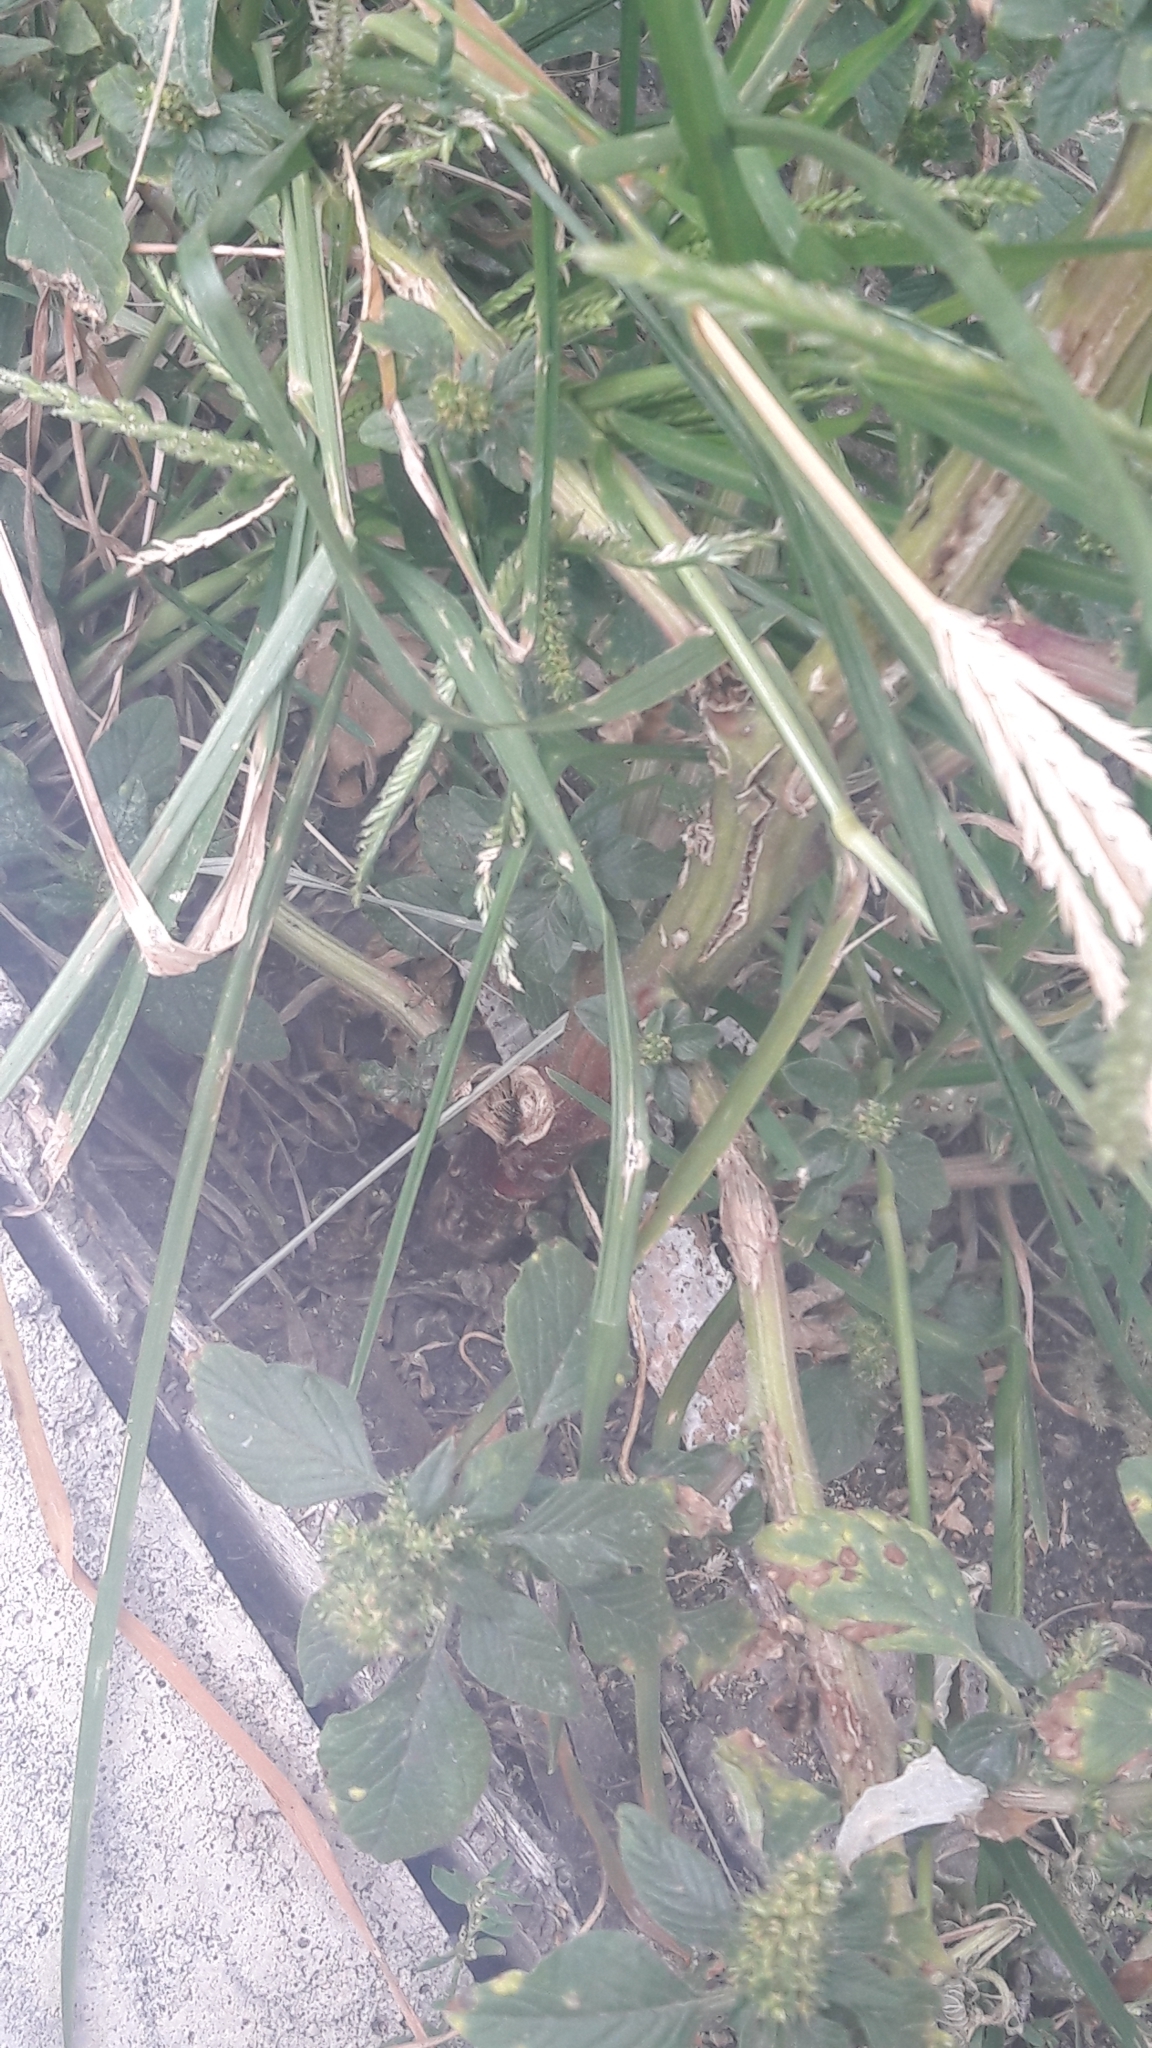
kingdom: Plantae
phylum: Tracheophyta
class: Magnoliopsida
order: Caryophyllales
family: Amaranthaceae
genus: Amaranthus
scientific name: Amaranthus retroflexus
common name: Redroot amaranth
